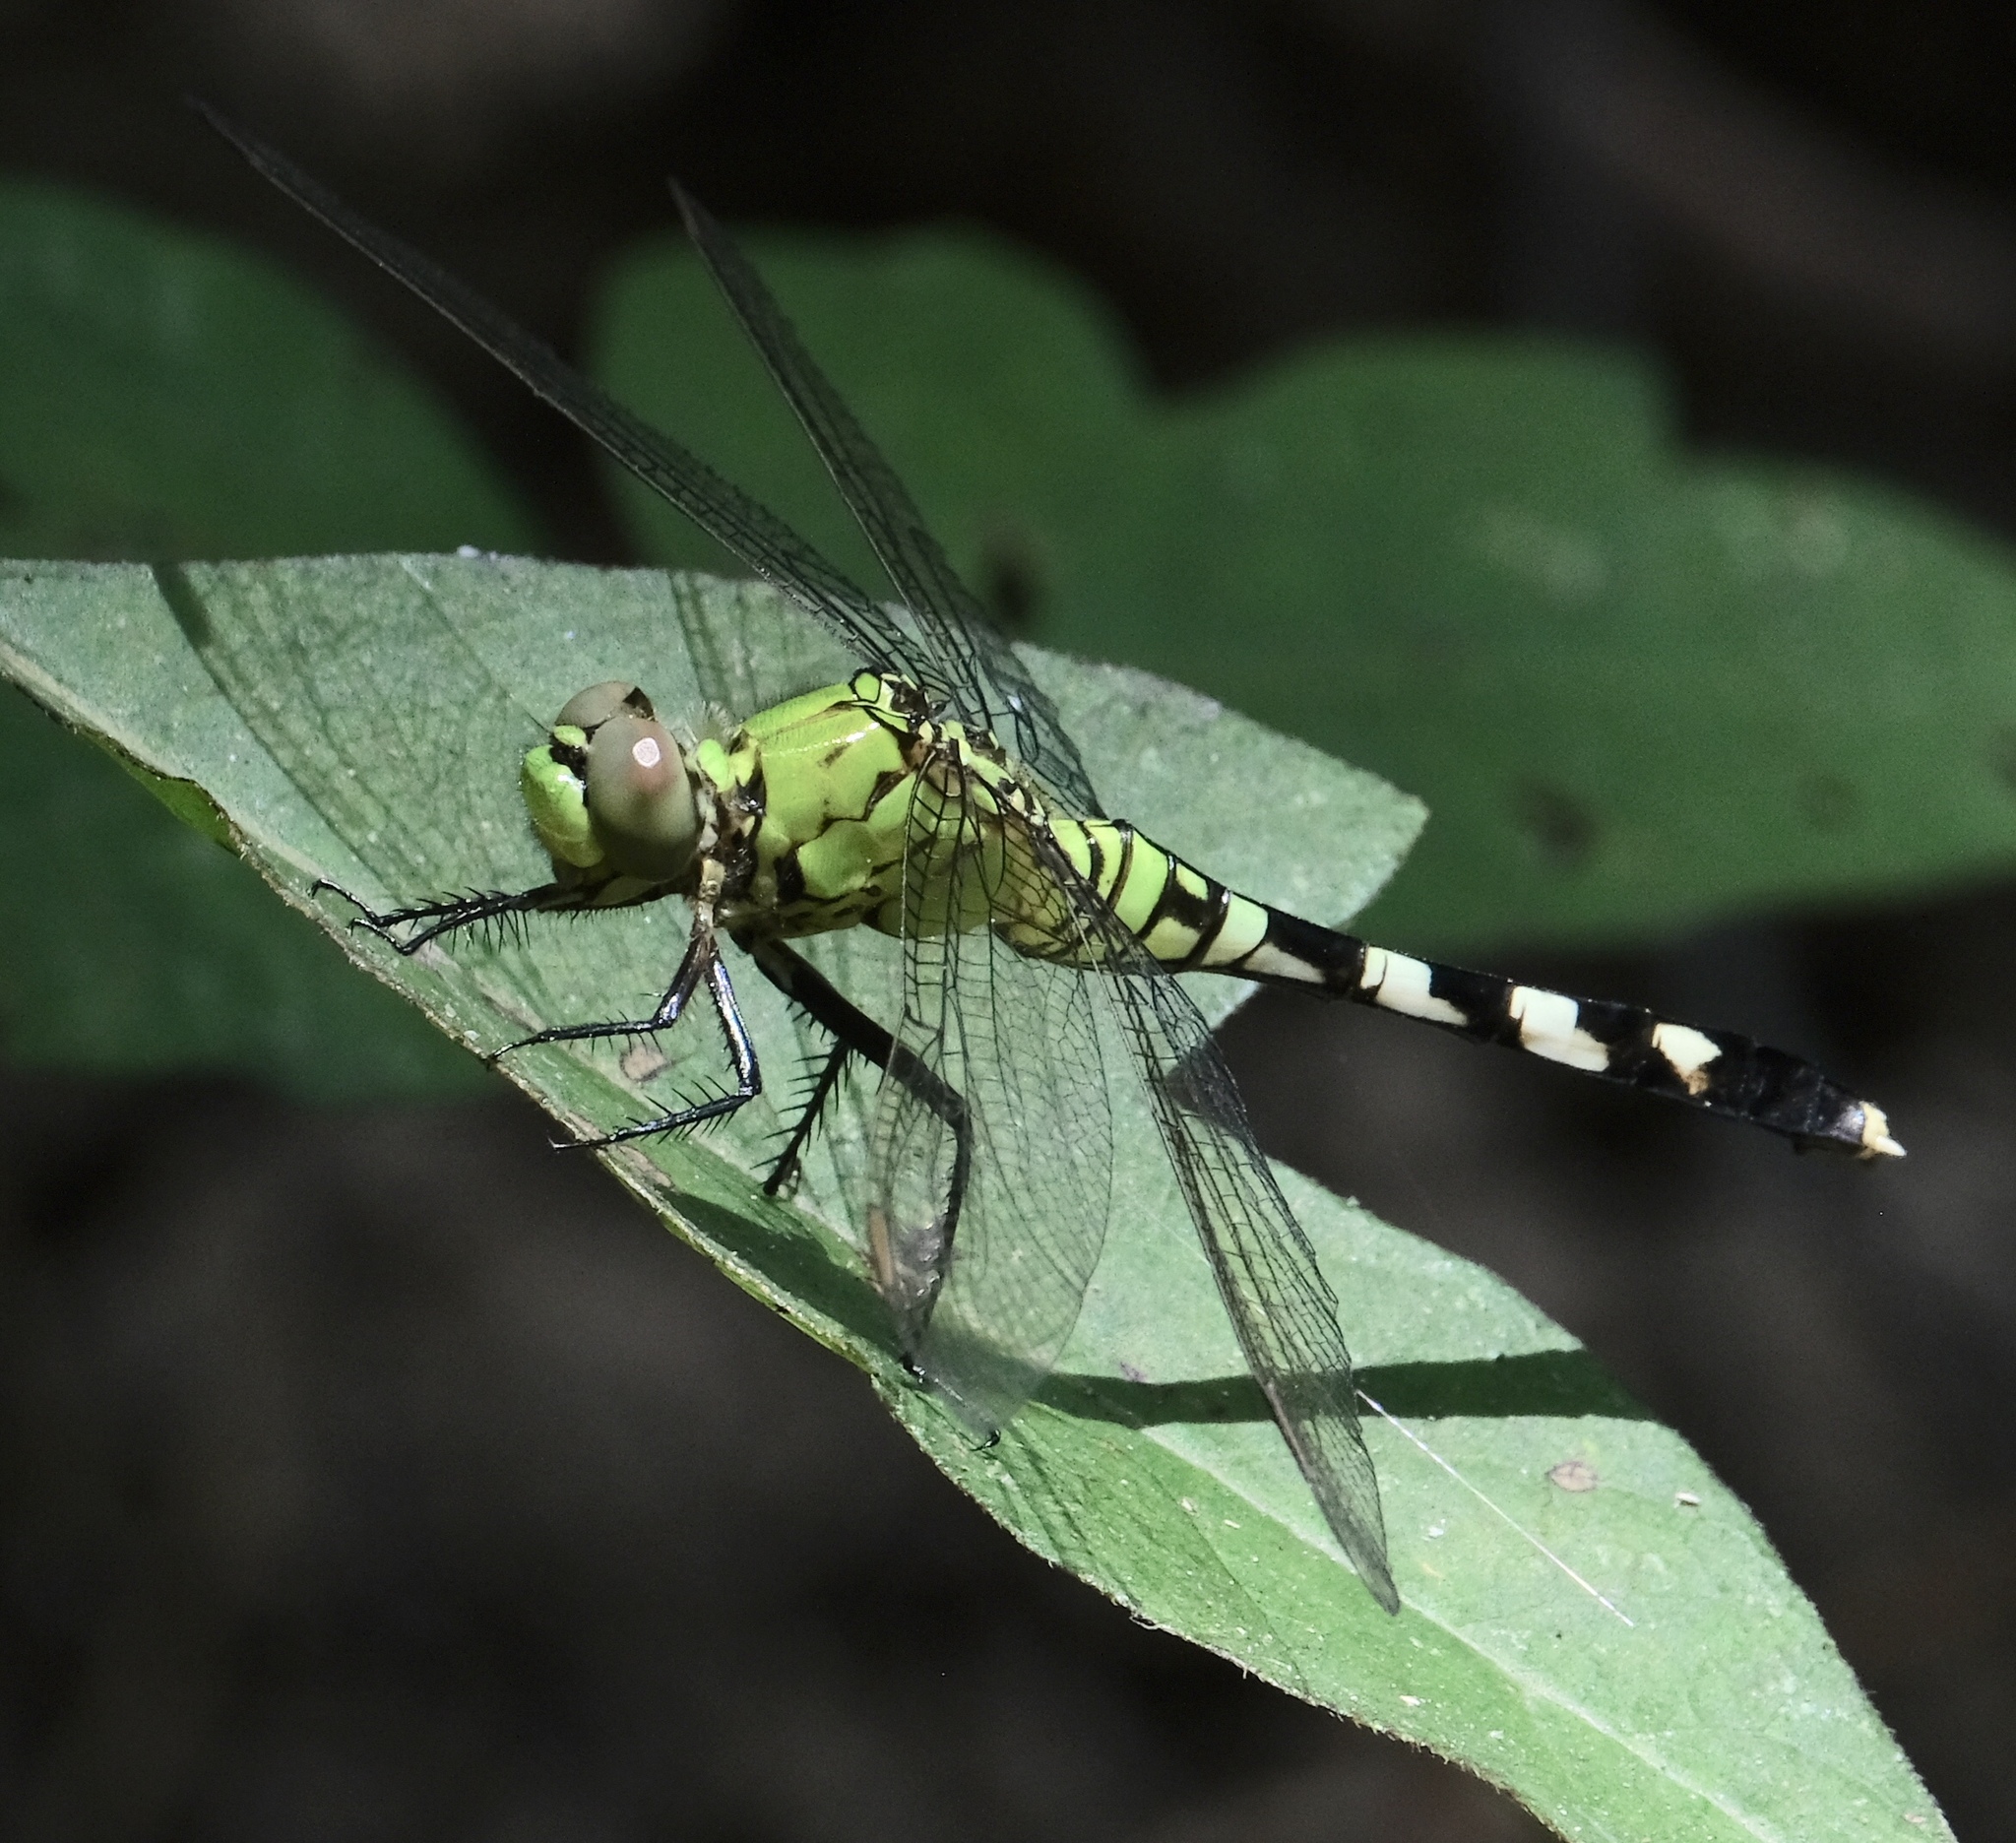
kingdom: Animalia
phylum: Arthropoda
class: Insecta
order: Odonata
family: Libellulidae
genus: Erythemis
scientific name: Erythemis simplicicollis
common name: Eastern pondhawk
